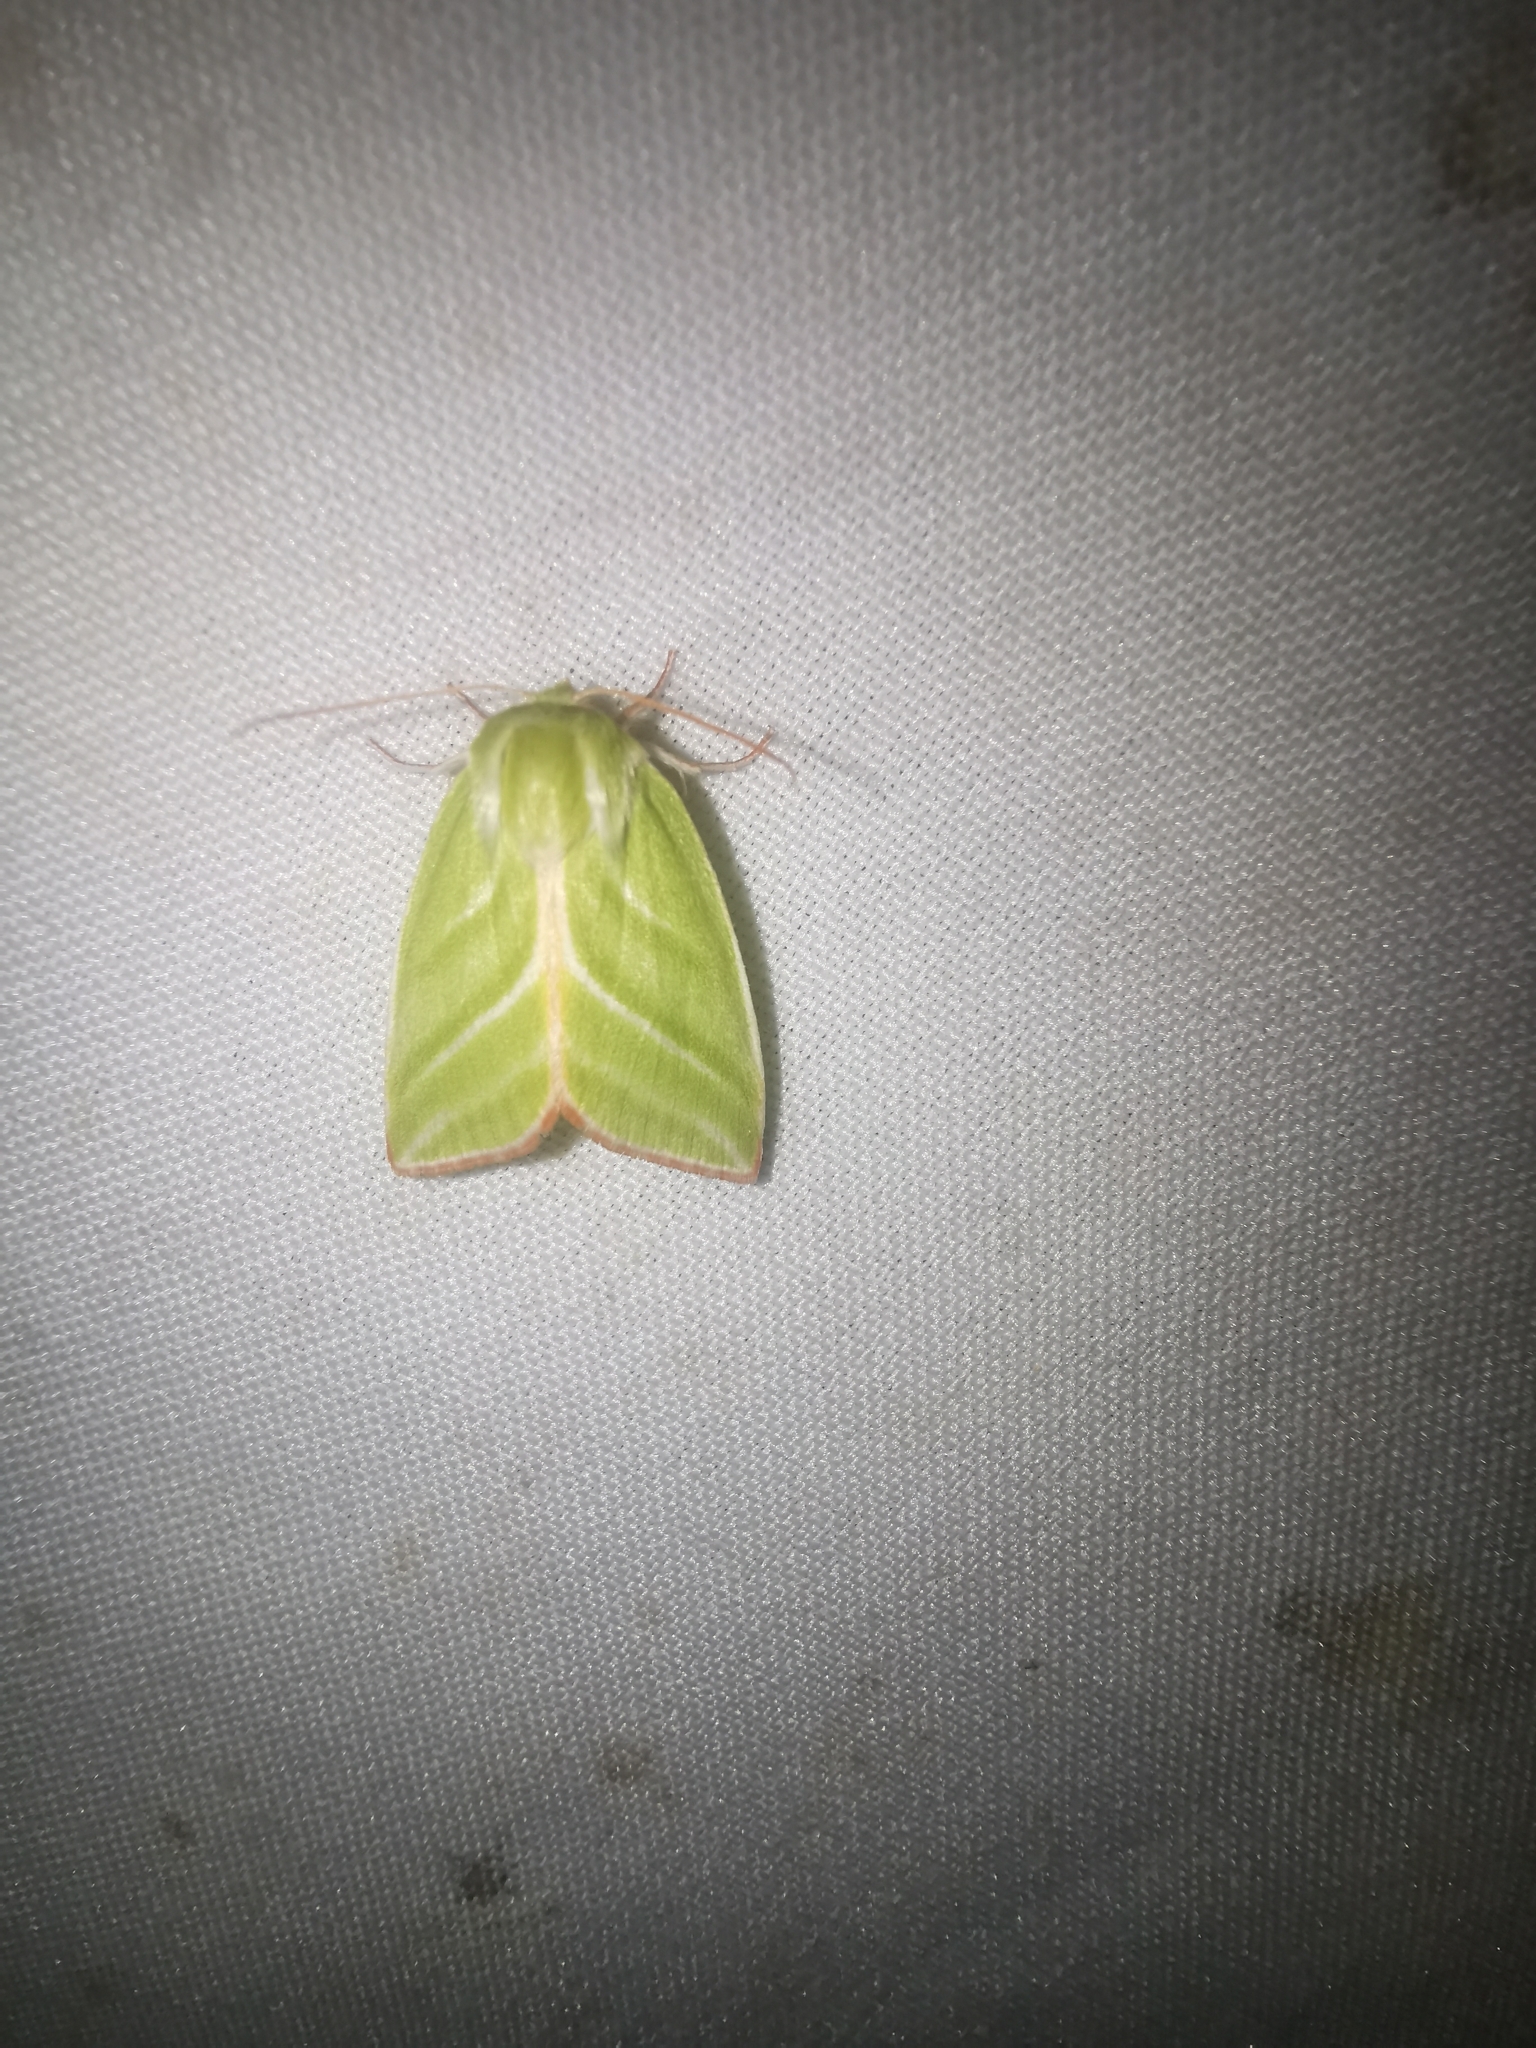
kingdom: Animalia
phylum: Arthropoda
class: Insecta
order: Lepidoptera
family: Nolidae
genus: Pseudoips
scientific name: Pseudoips prasinana
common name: Green silver-lines
